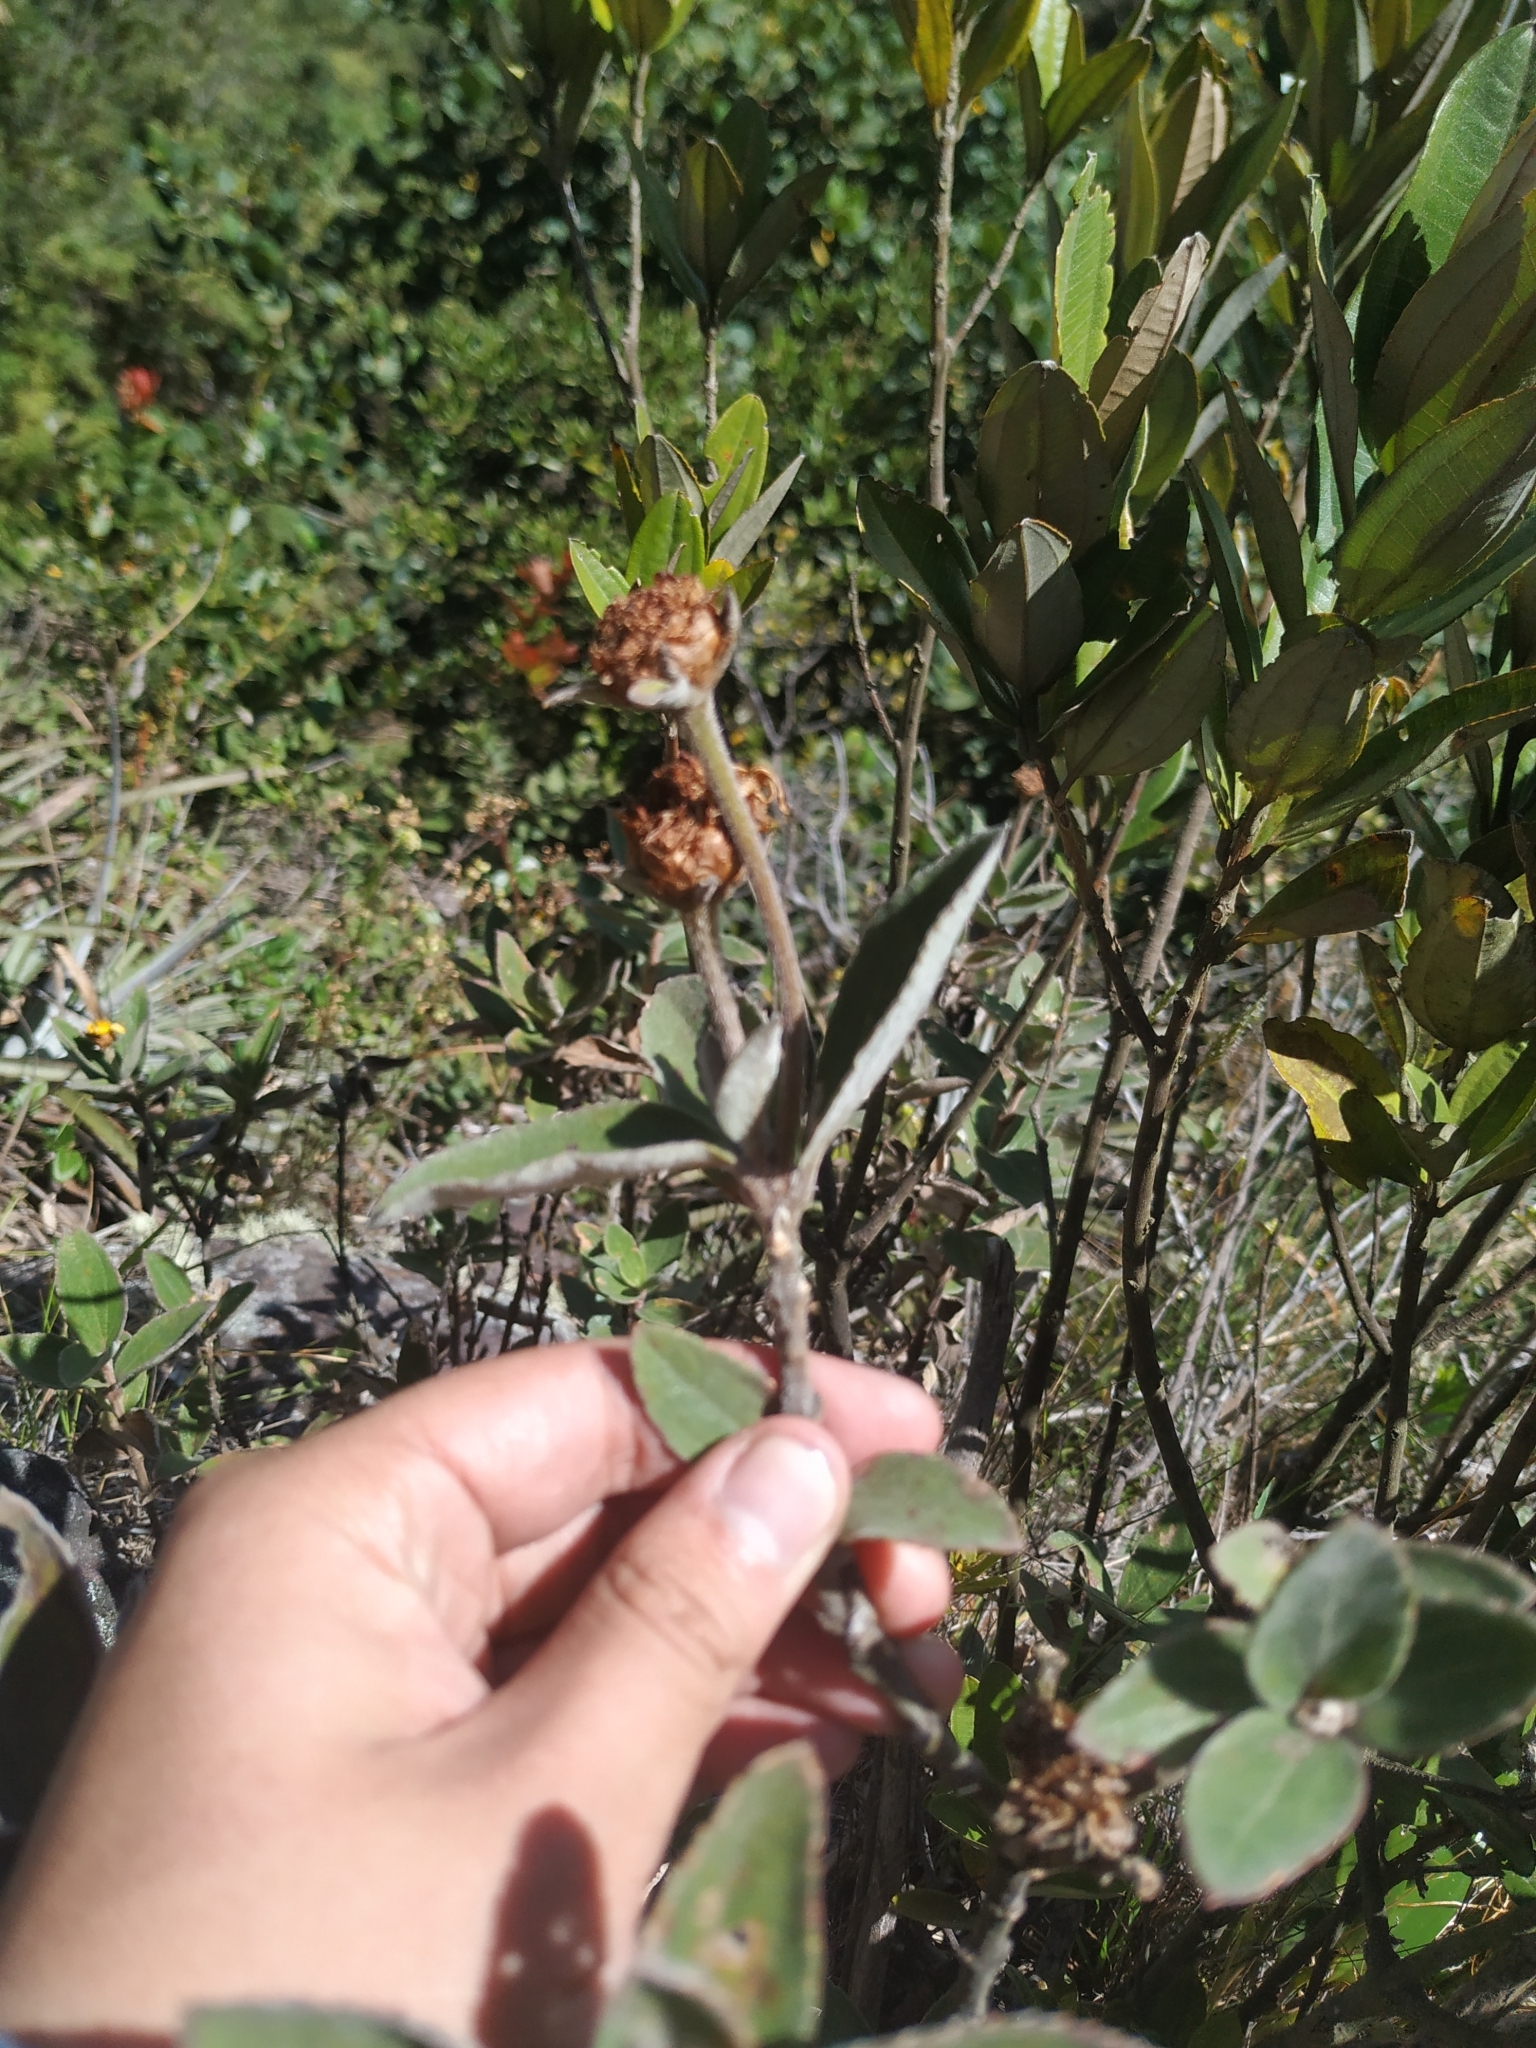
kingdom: Plantae
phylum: Tracheophyta
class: Magnoliopsida
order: Asterales
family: Asteraceae
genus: Calea
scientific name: Calea peruviana
